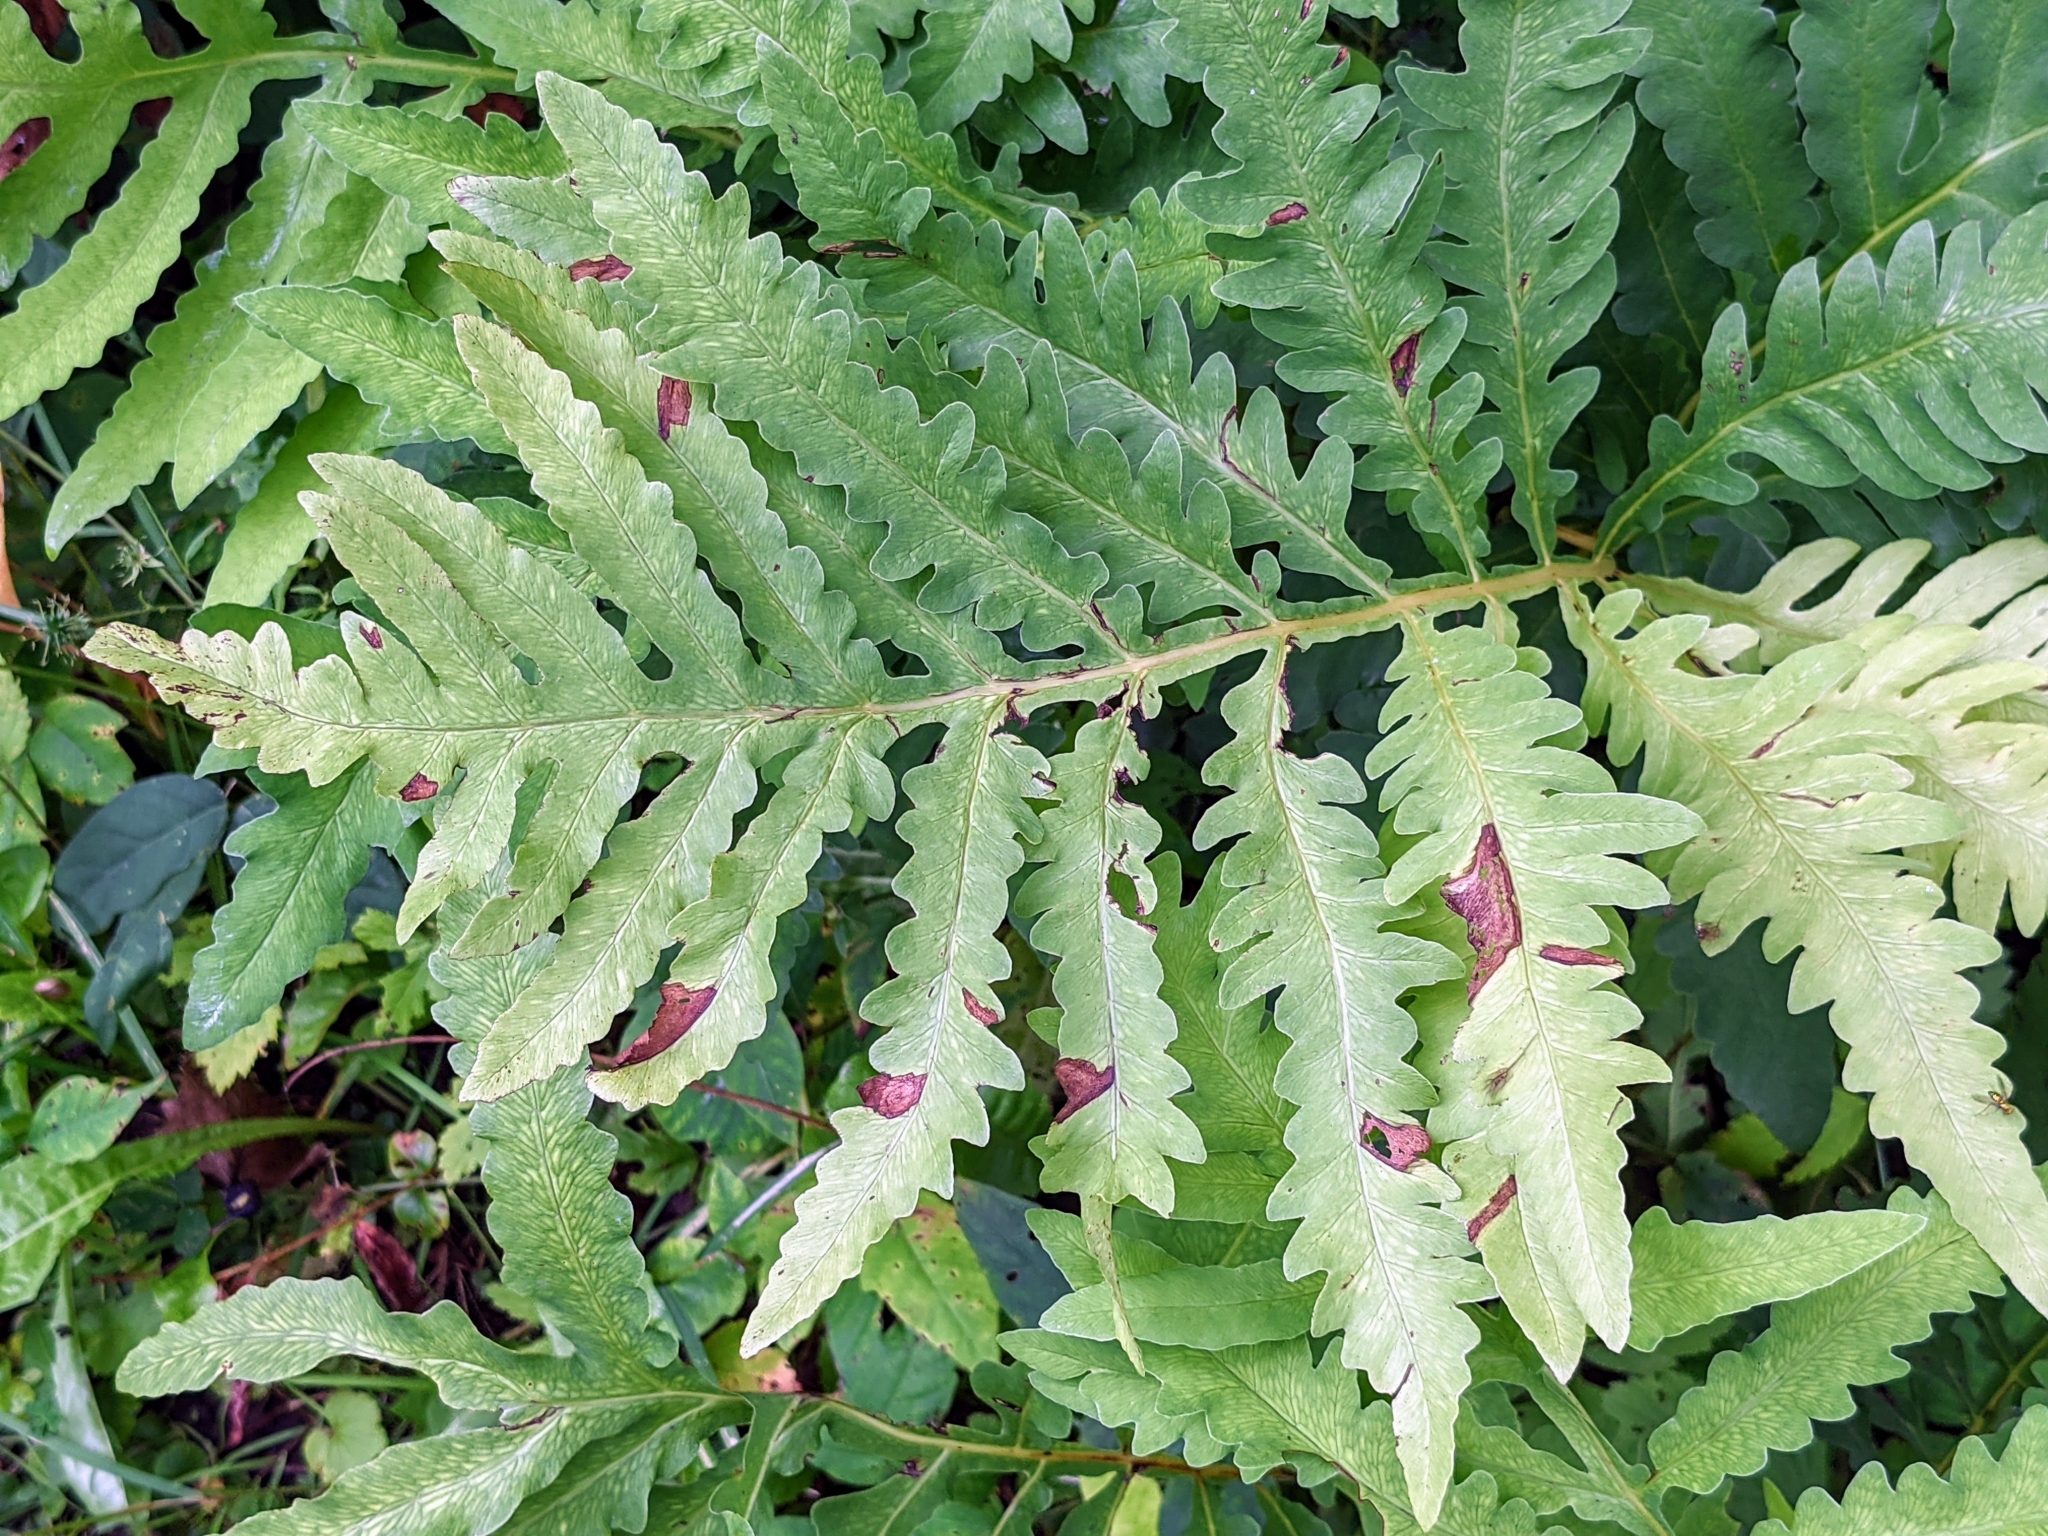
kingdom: Plantae
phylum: Tracheophyta
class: Polypodiopsida
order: Polypodiales
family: Onocleaceae
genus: Onoclea
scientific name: Onoclea sensibilis
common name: Sensitive fern
